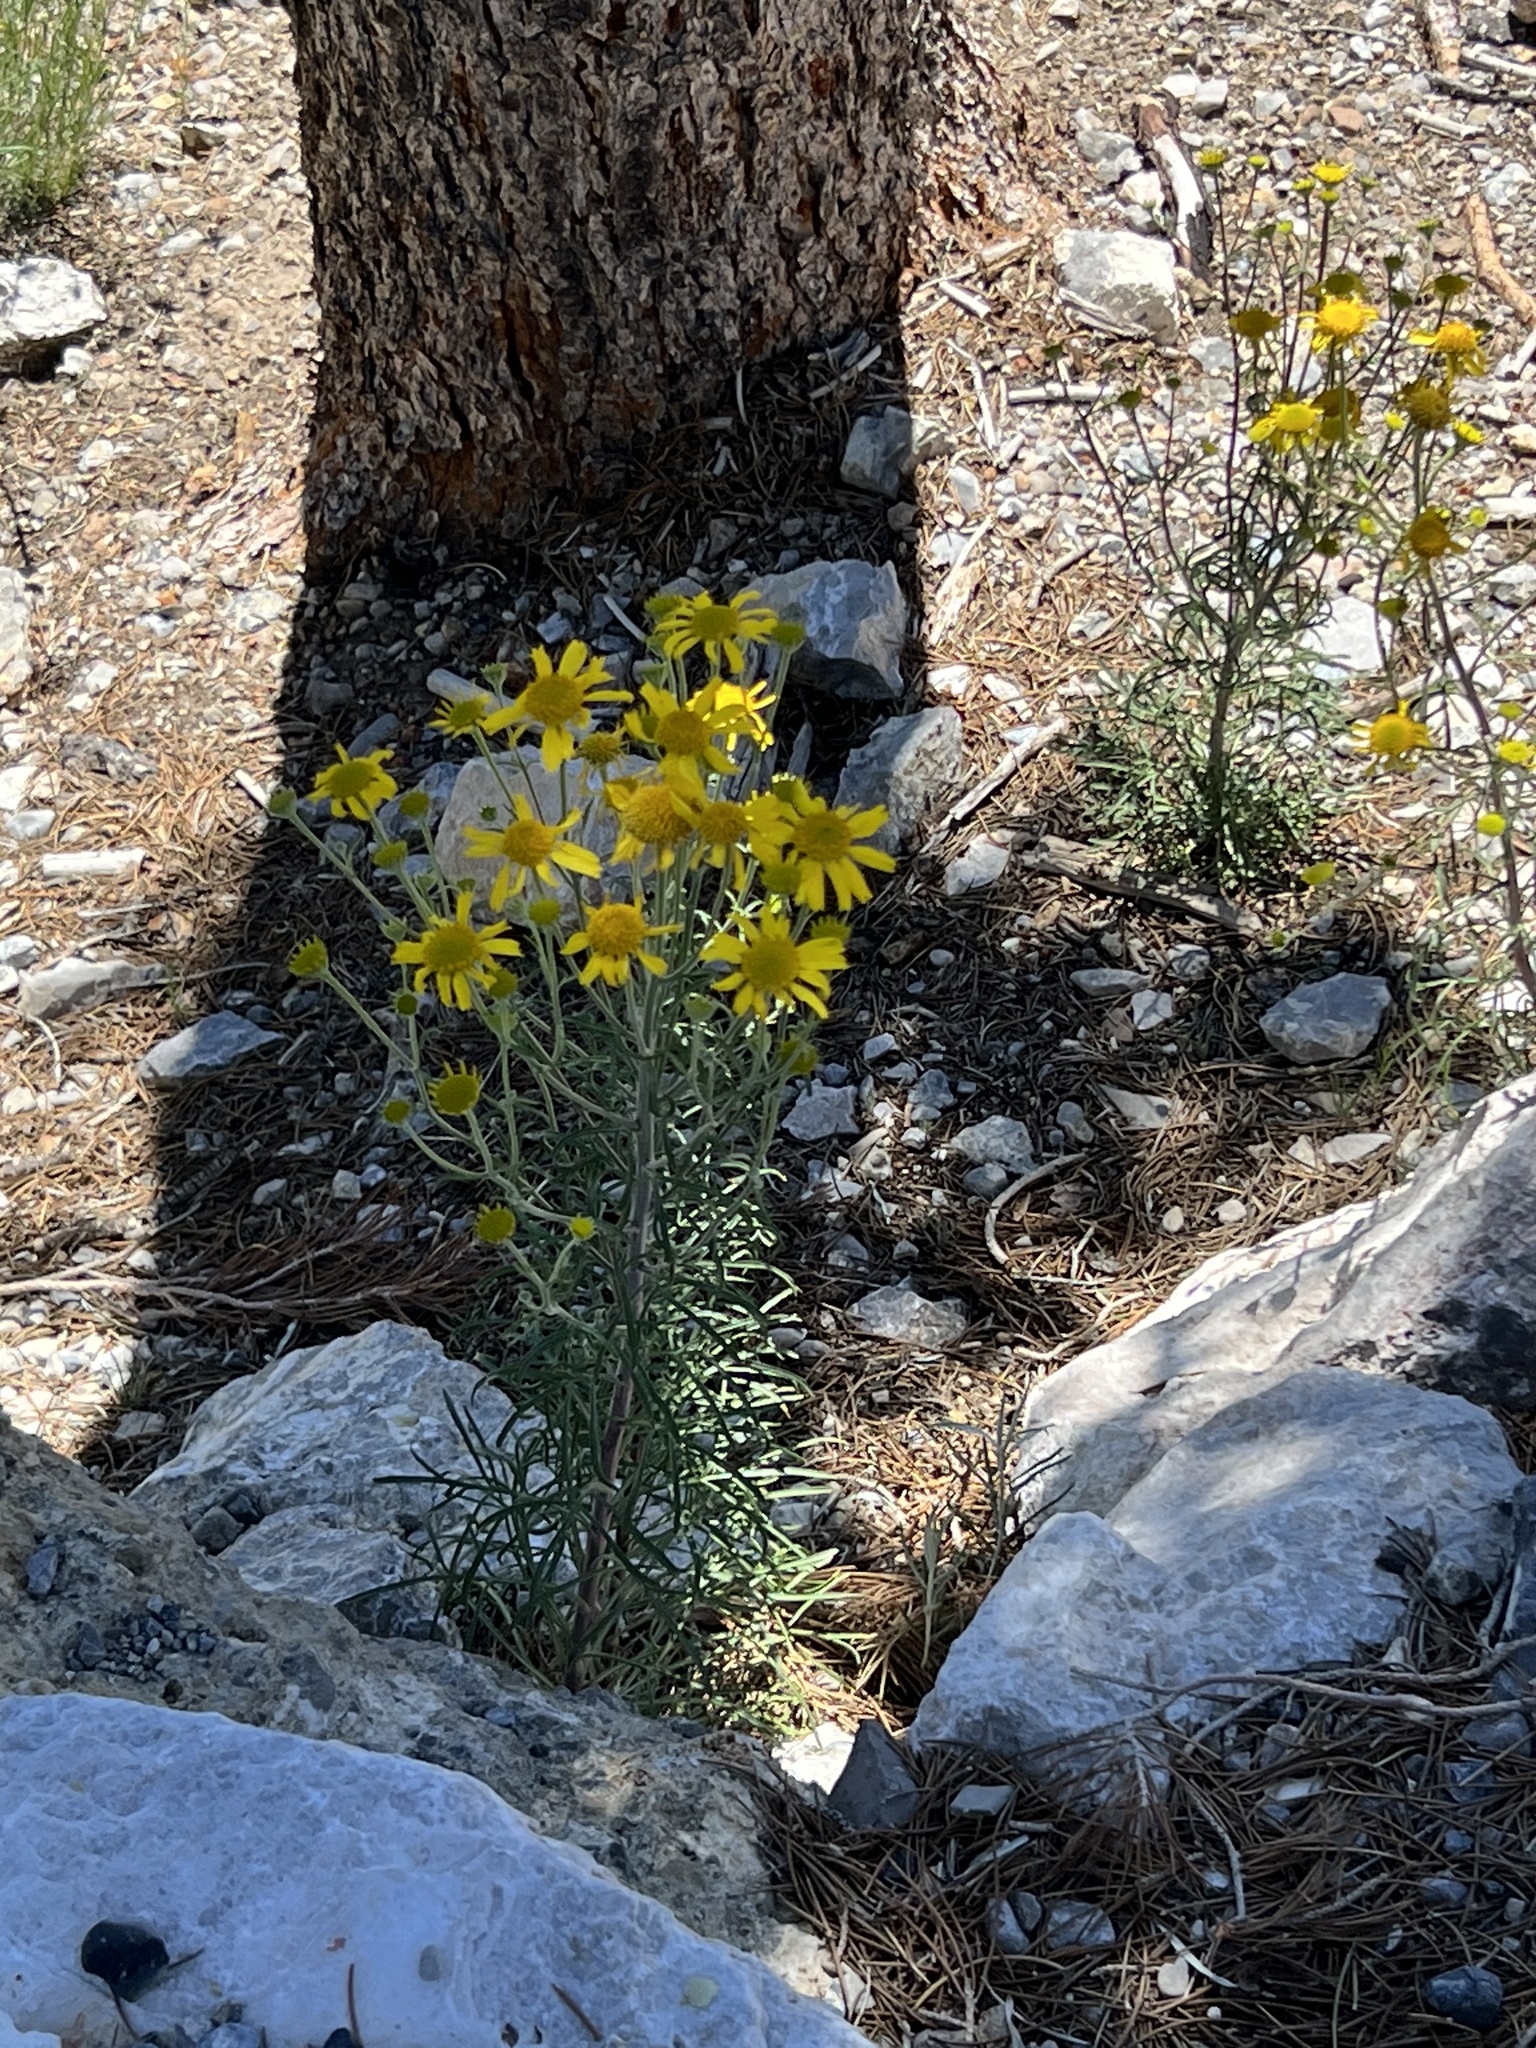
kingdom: Plantae
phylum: Tracheophyta
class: Magnoliopsida
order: Asterales
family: Asteraceae
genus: Hymenoxys
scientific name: Hymenoxys cooperi
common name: Cooper's bitterweed
